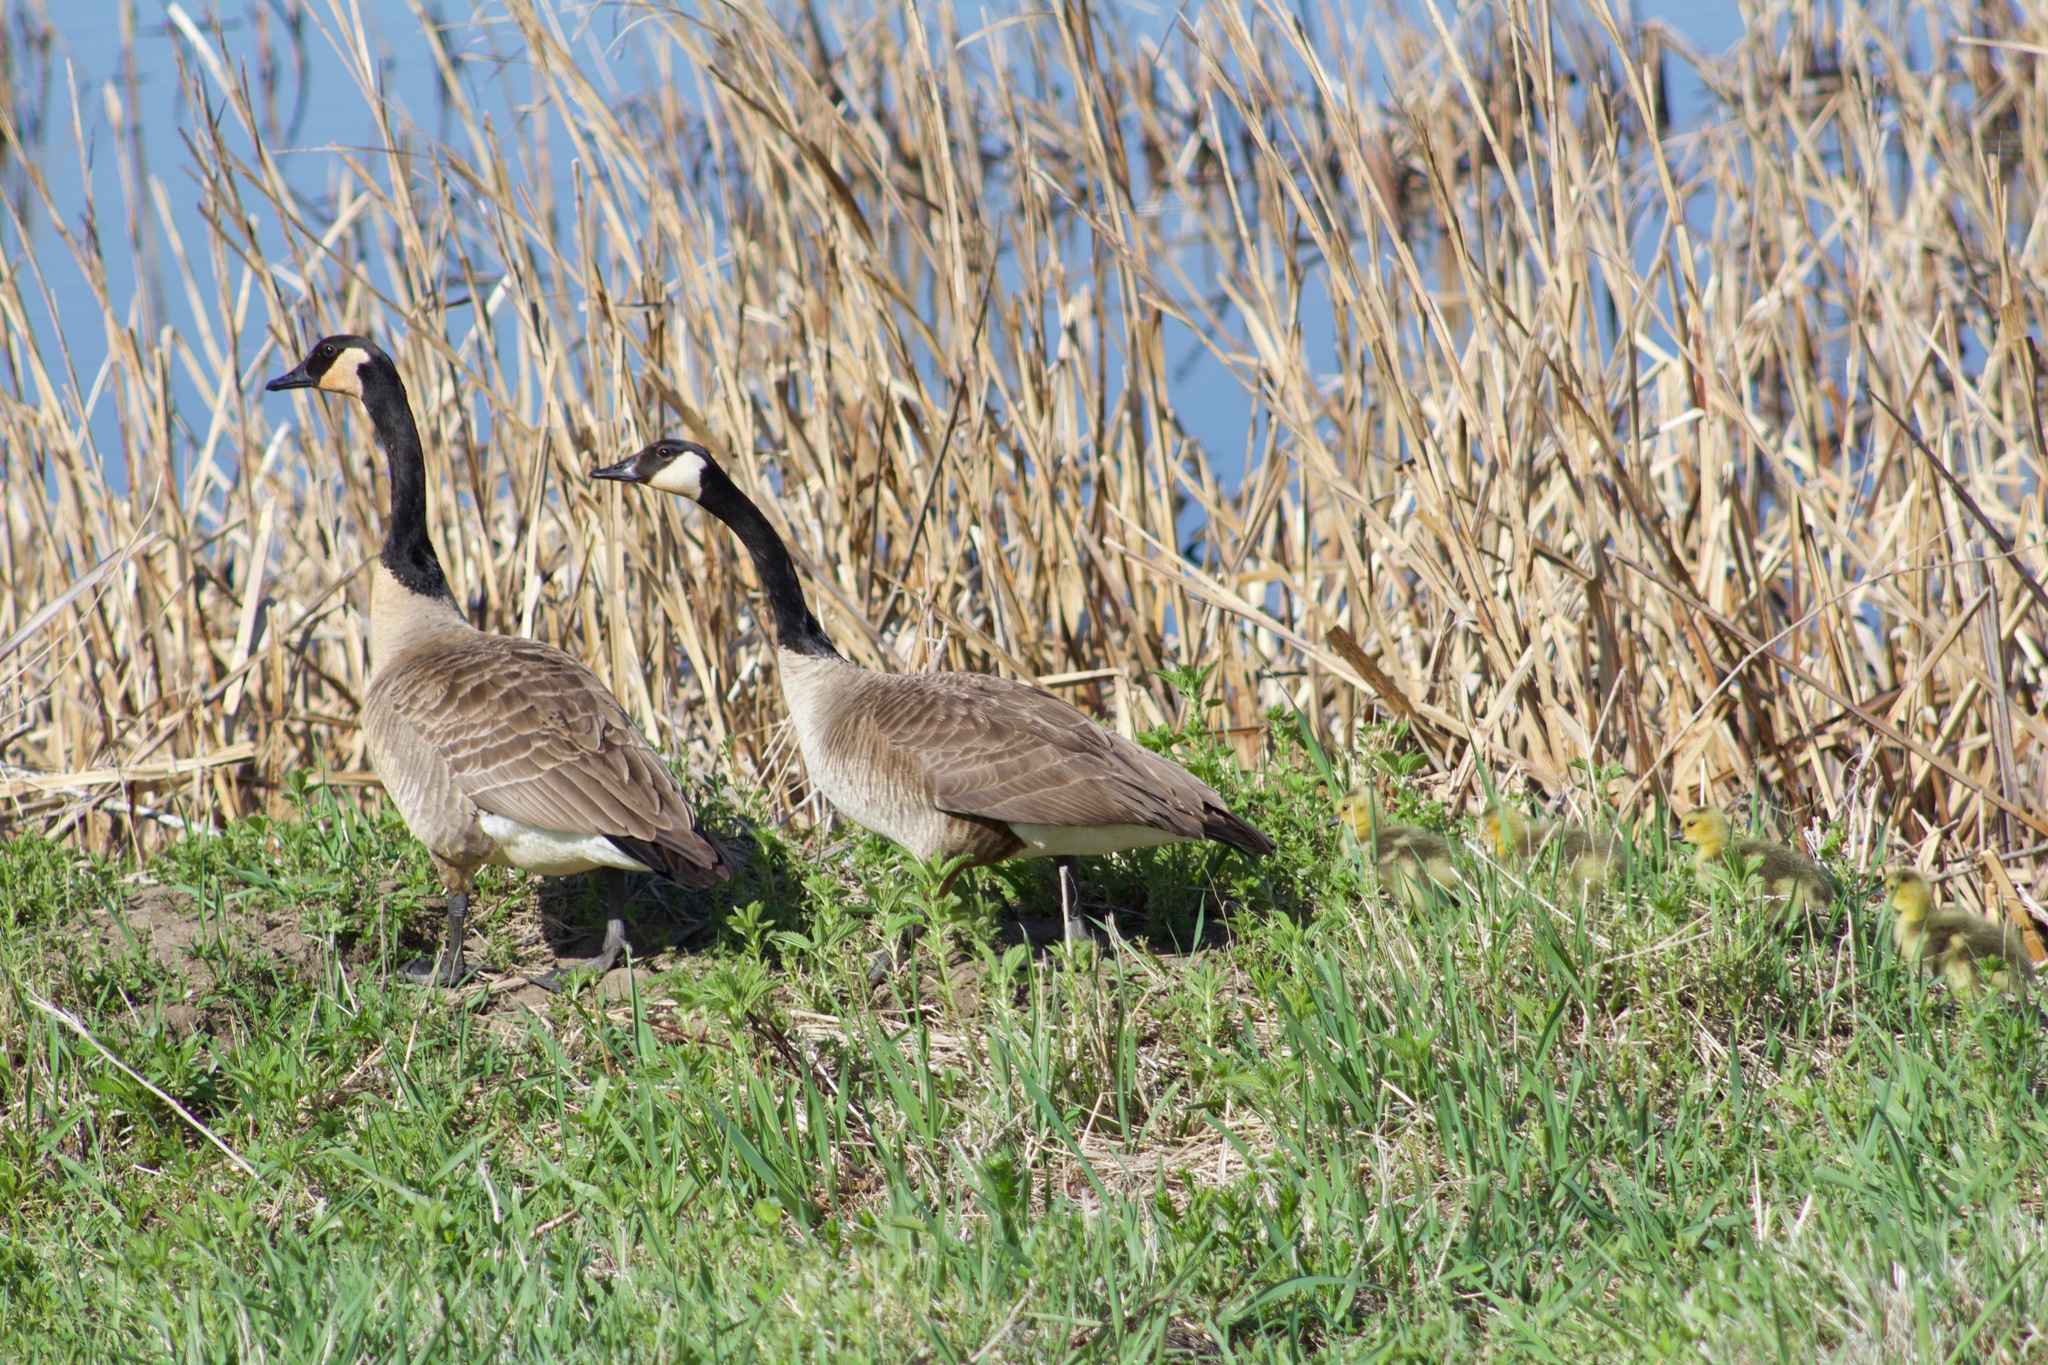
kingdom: Animalia
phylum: Chordata
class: Aves
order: Anseriformes
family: Anatidae
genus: Branta
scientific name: Branta canadensis
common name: Canada goose
